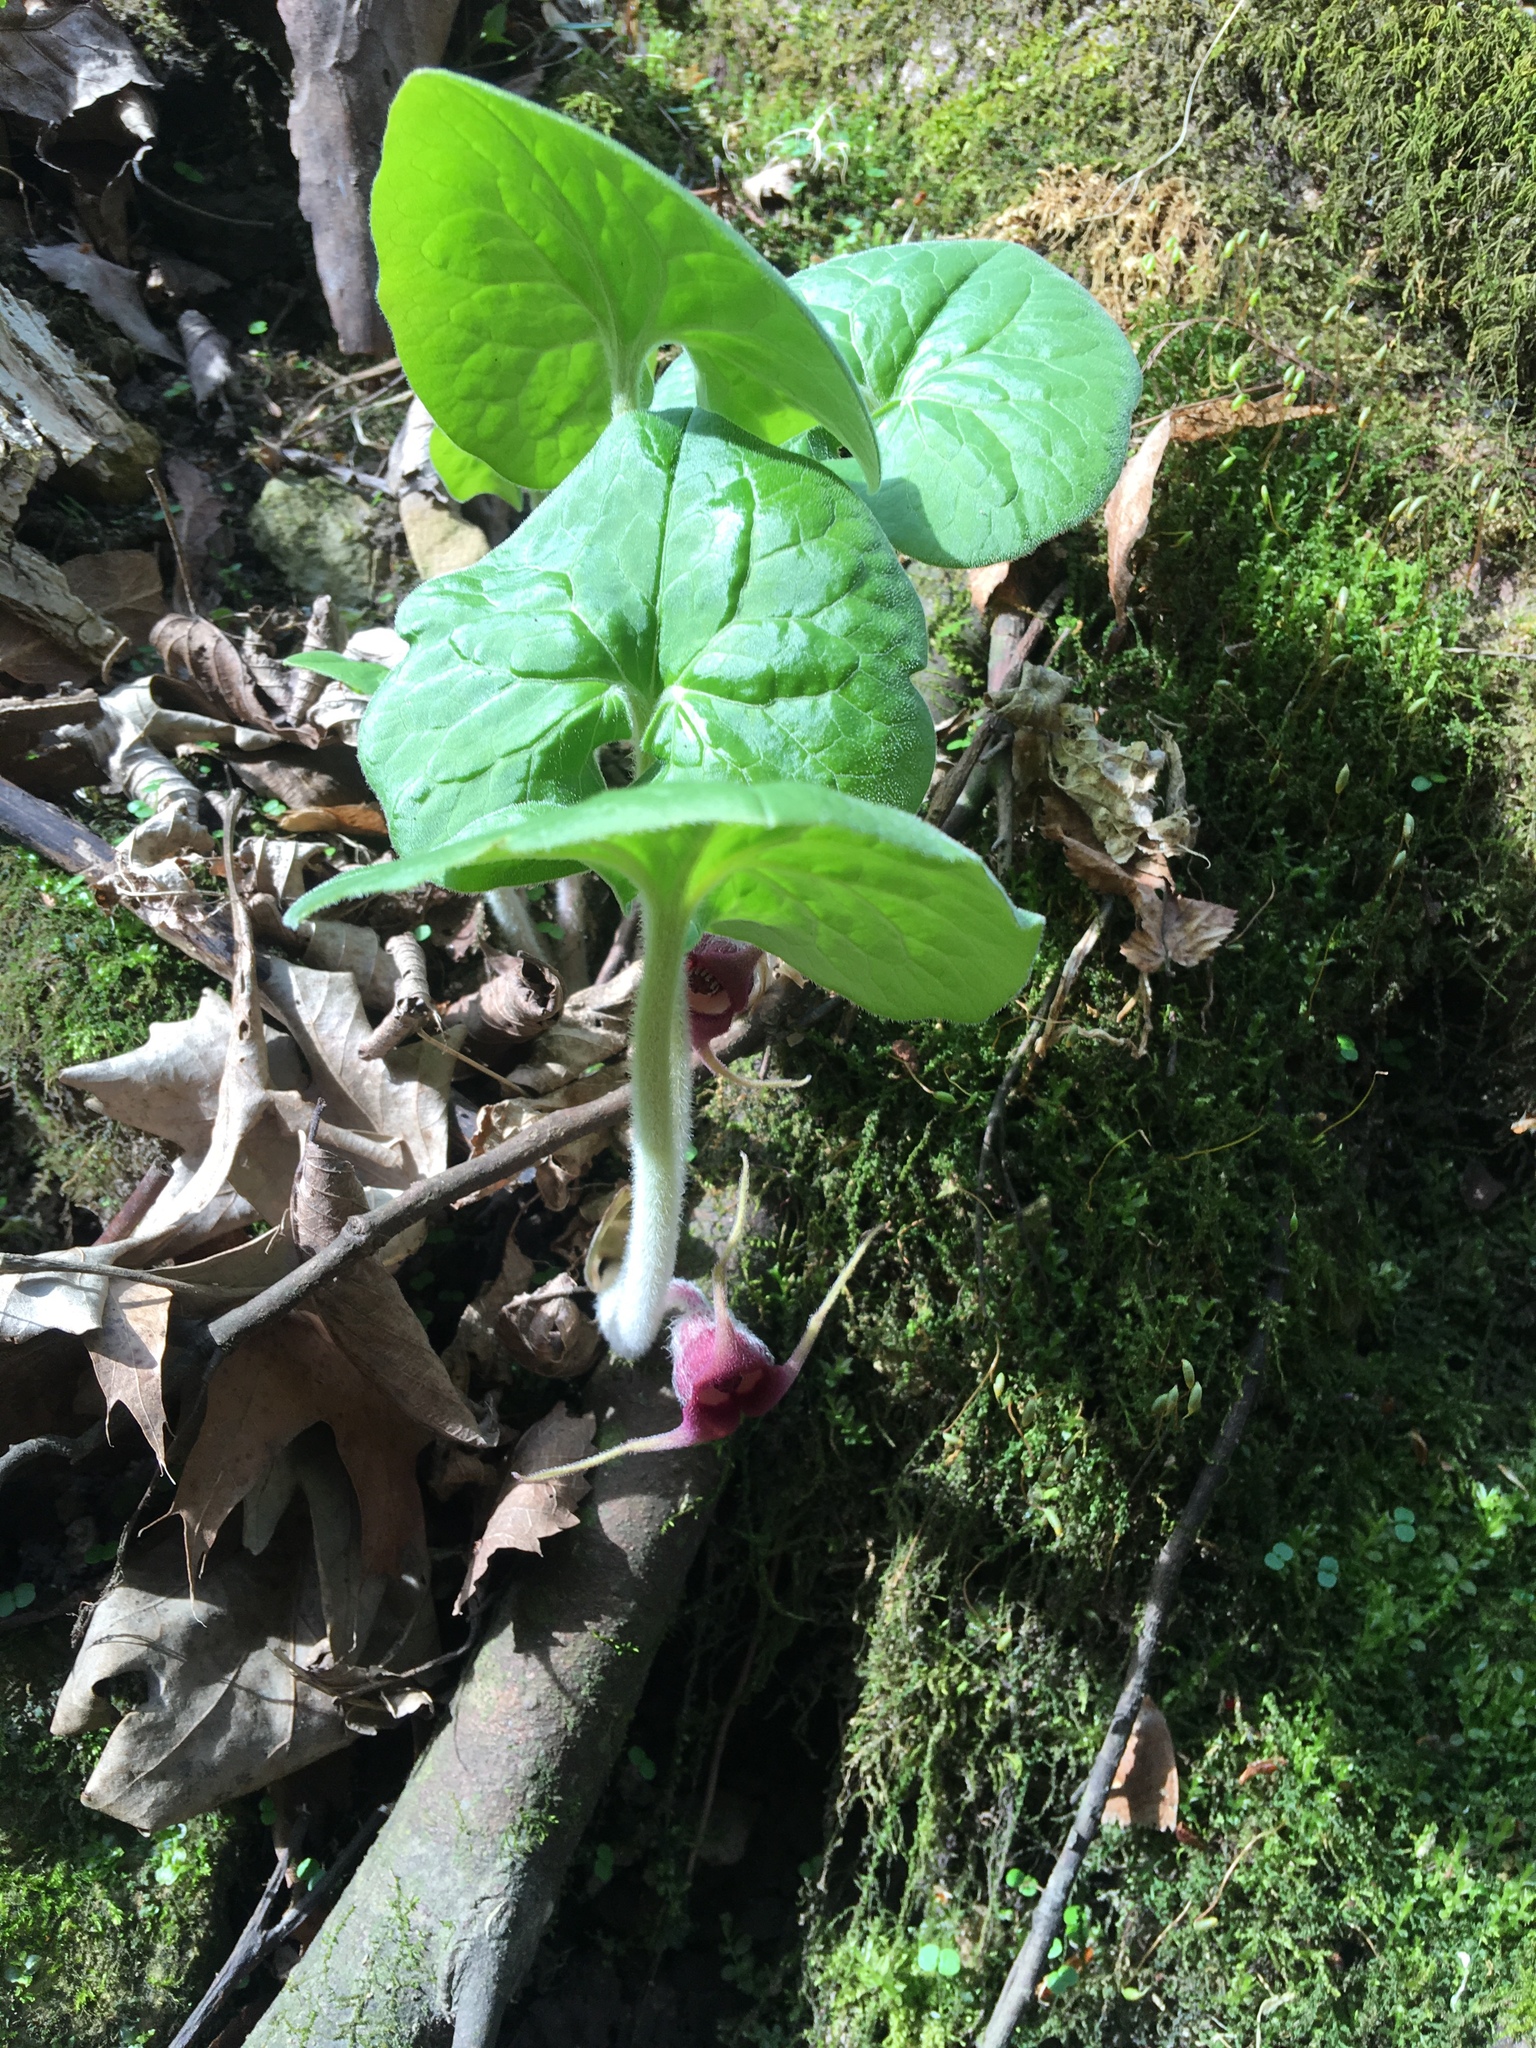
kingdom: Plantae
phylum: Tracheophyta
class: Magnoliopsida
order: Piperales
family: Aristolochiaceae
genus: Asarum
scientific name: Asarum canadense
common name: Wild ginger
